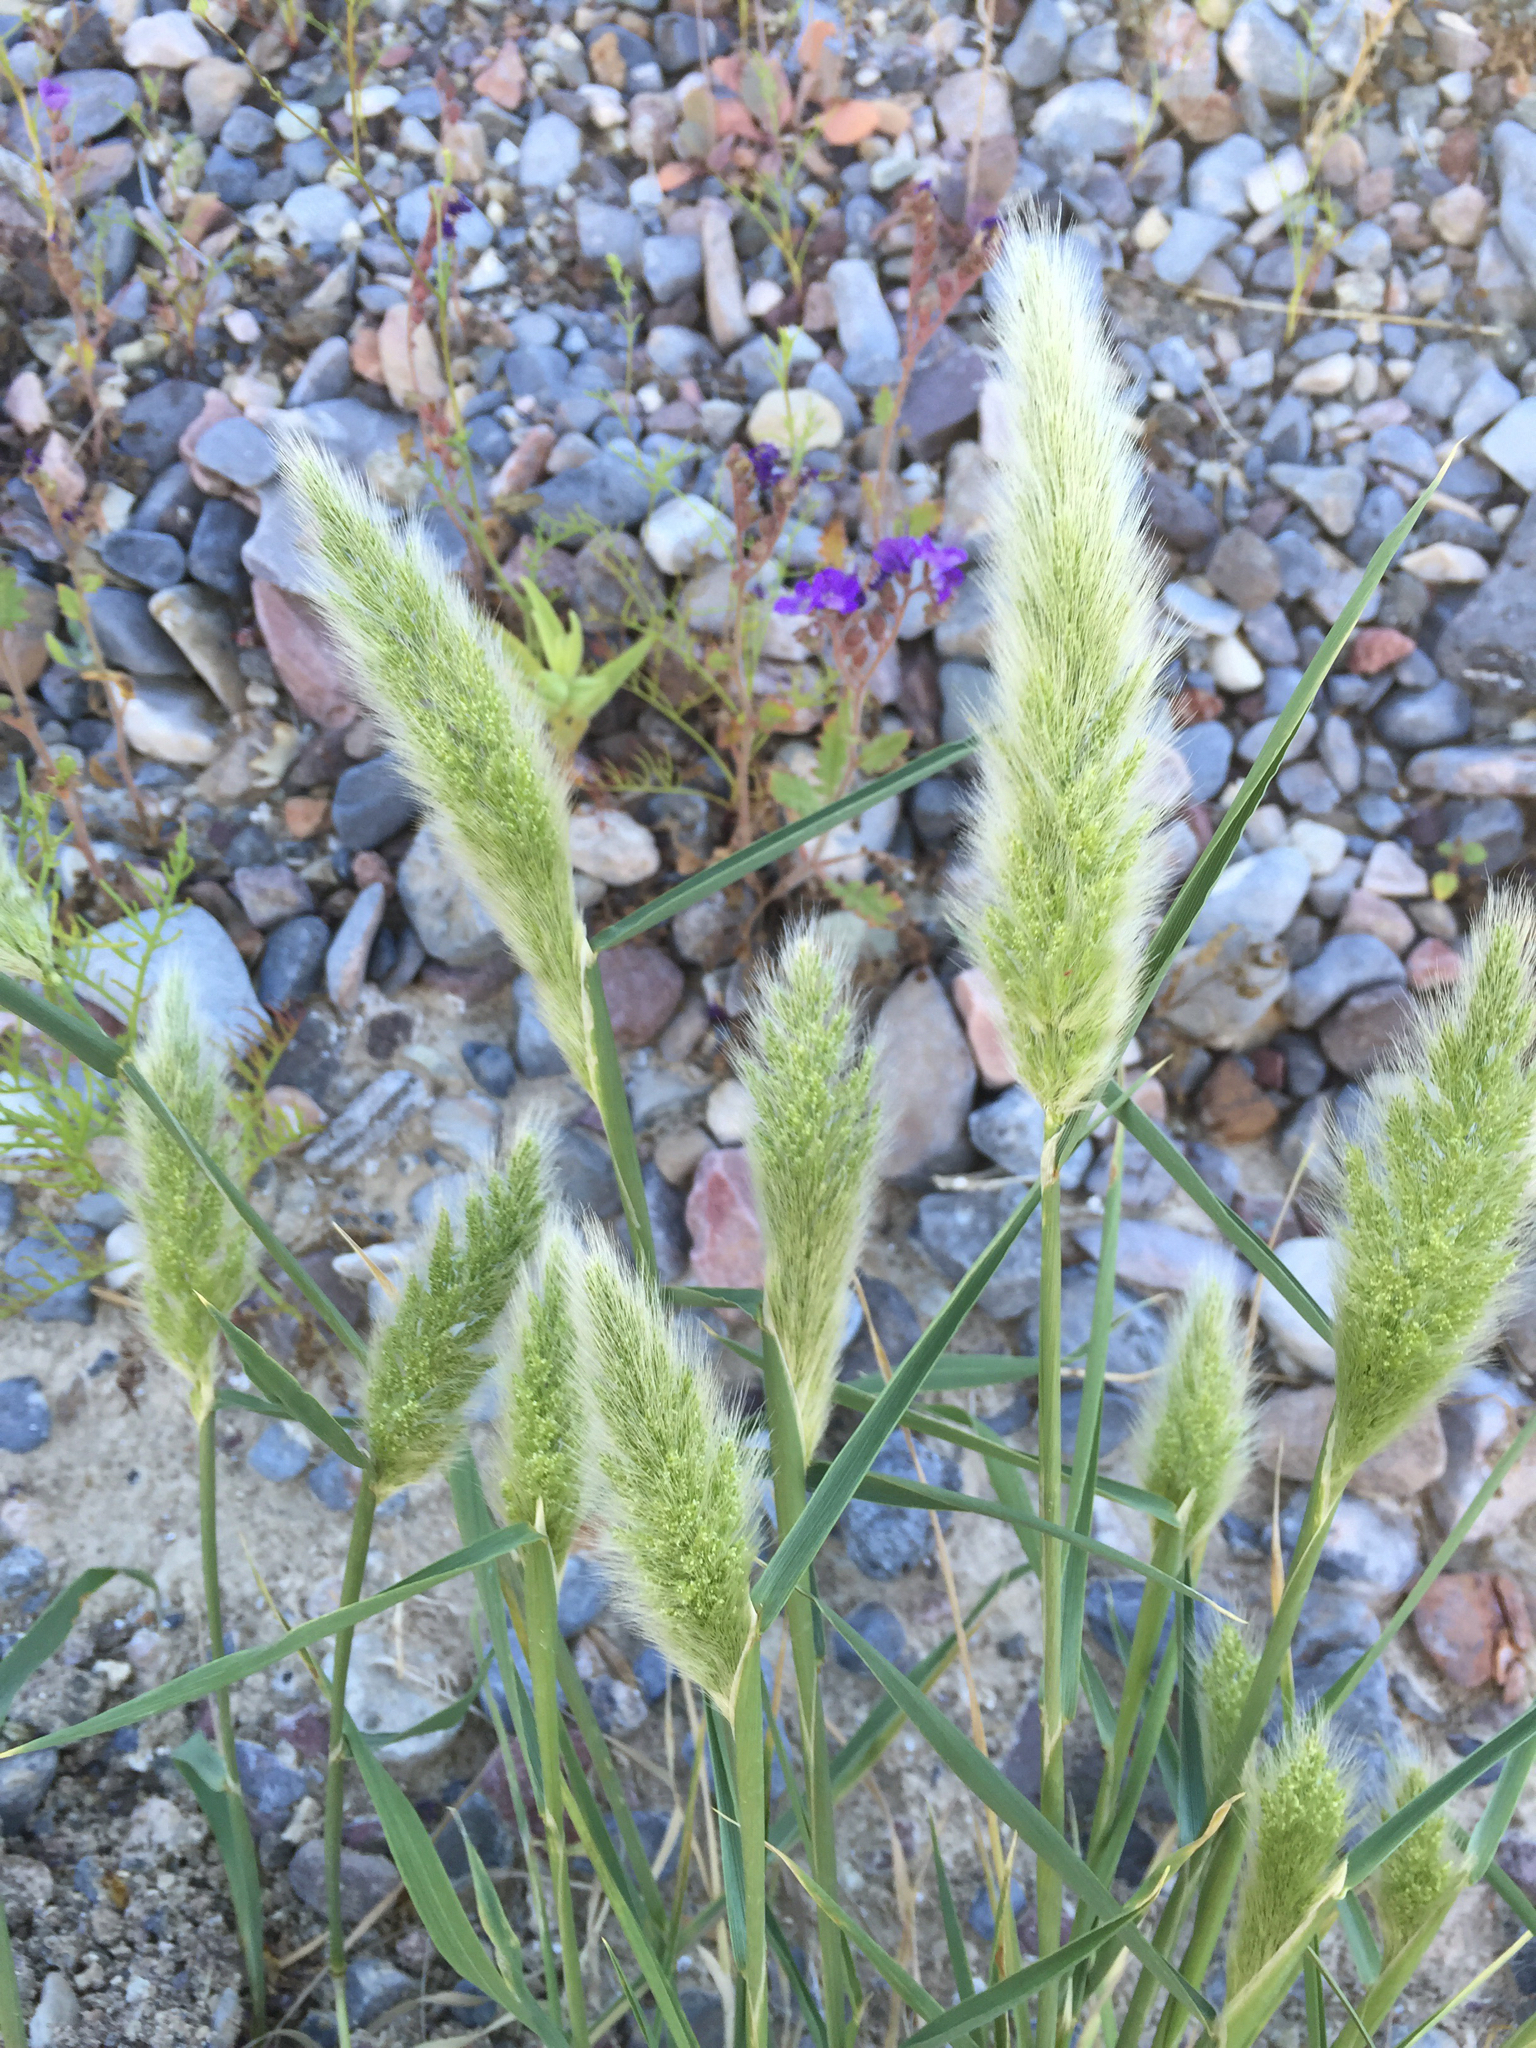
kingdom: Plantae
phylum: Tracheophyta
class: Liliopsida
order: Poales
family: Poaceae
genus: Polypogon
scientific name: Polypogon monspeliensis
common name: Annual rabbitsfoot grass
